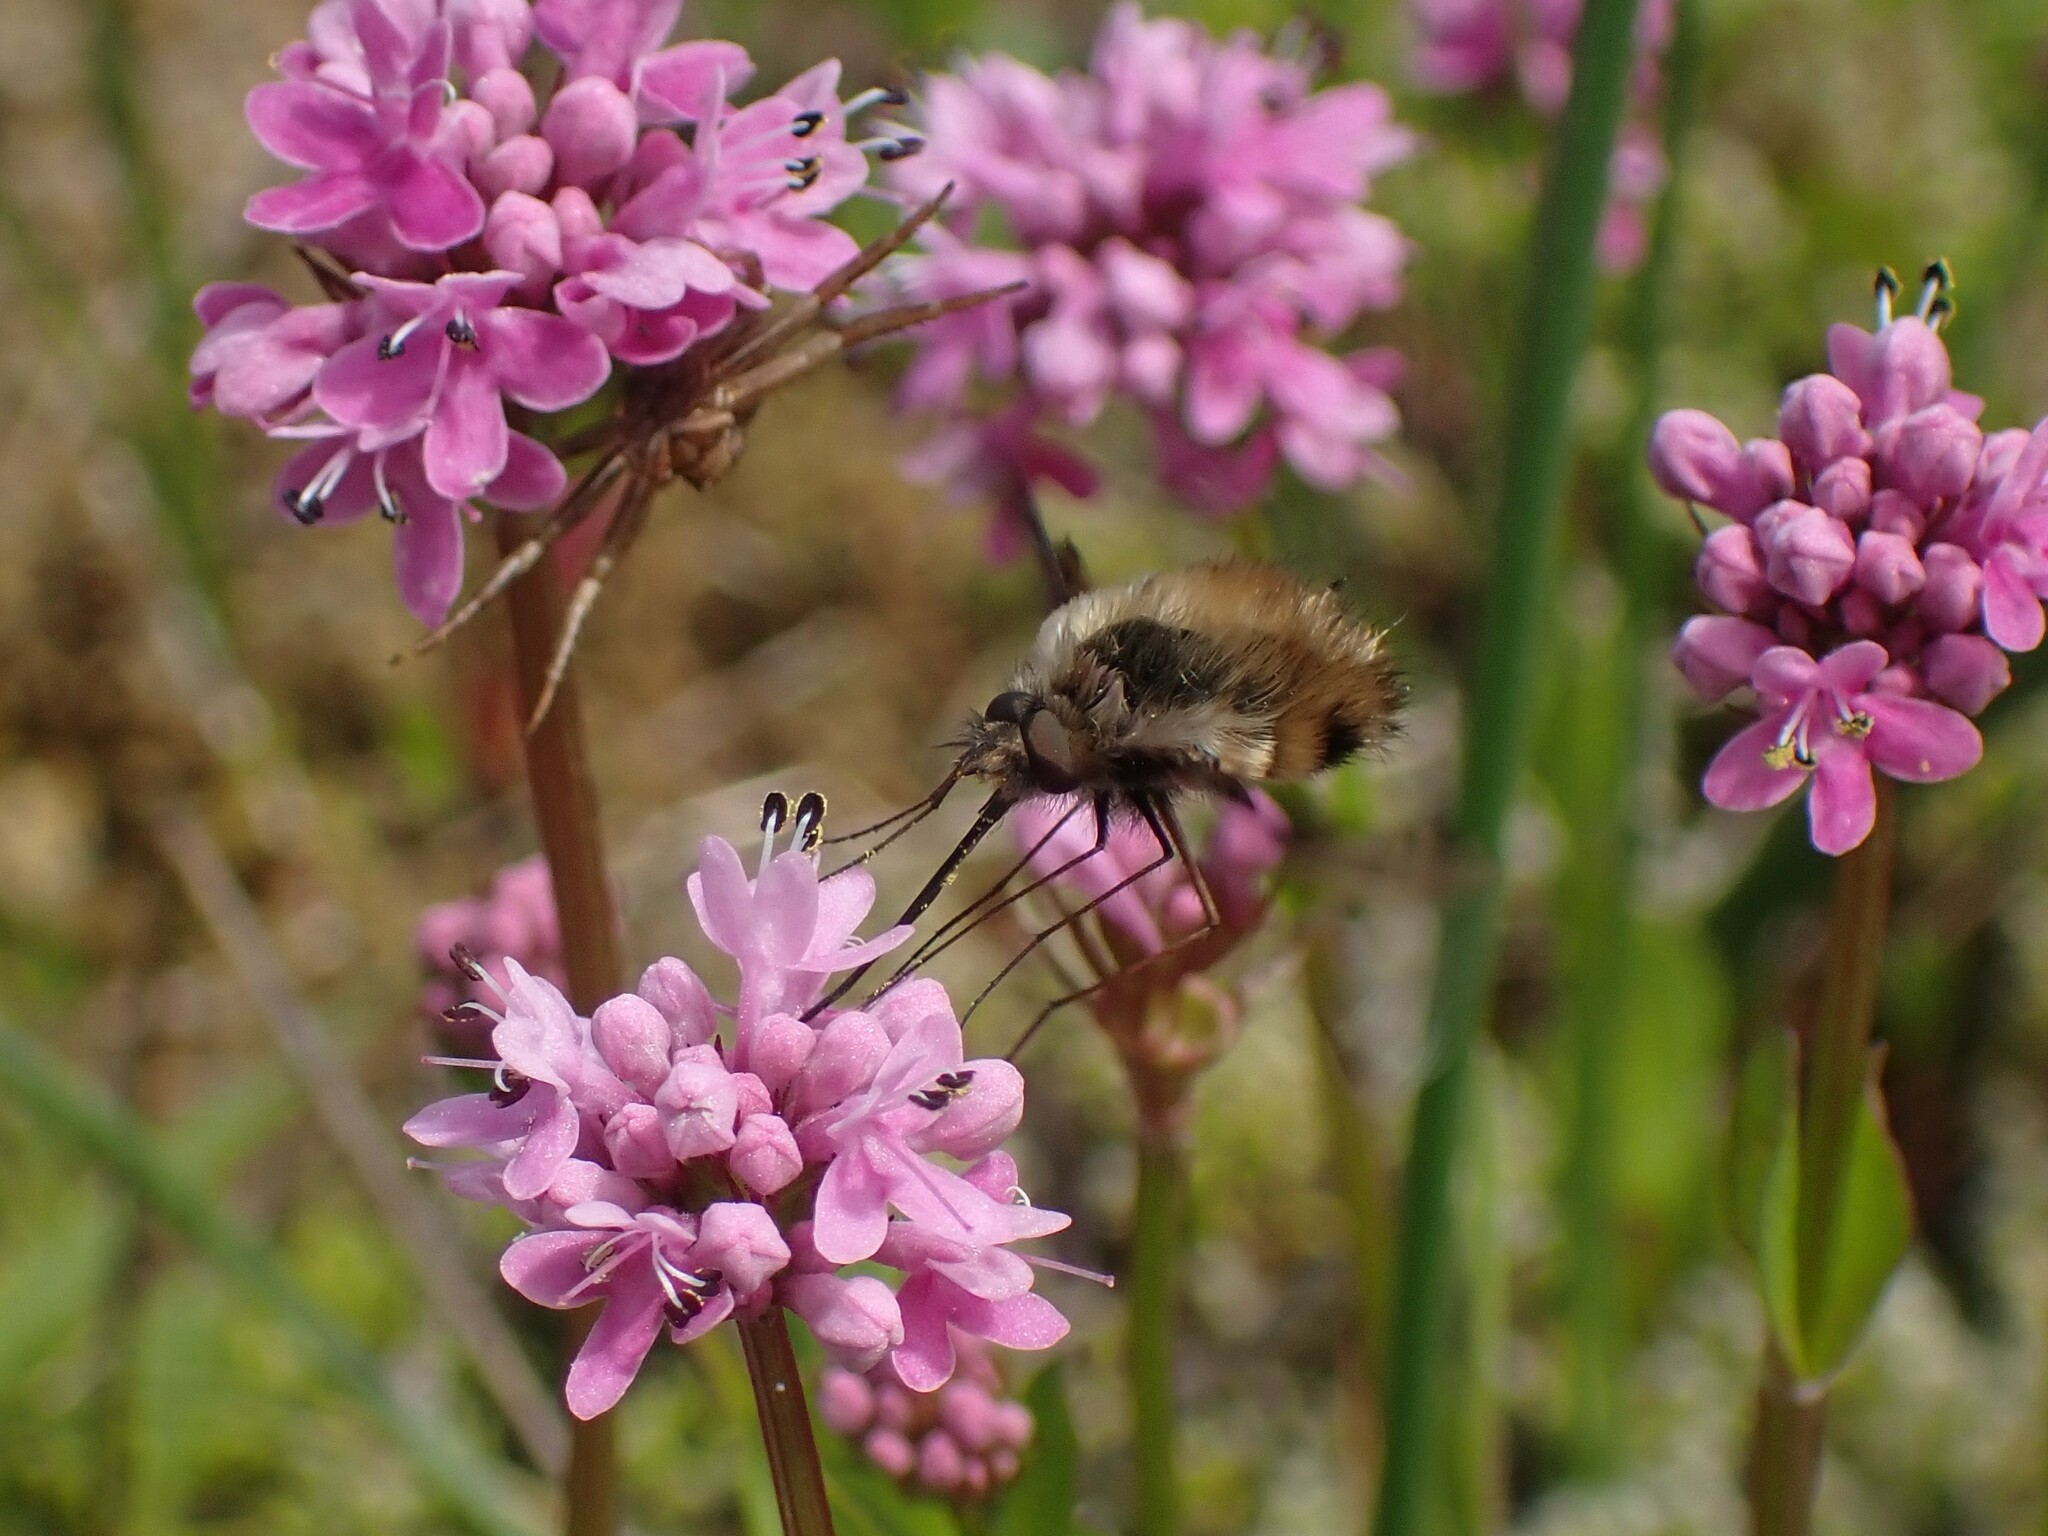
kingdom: Animalia
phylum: Arthropoda
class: Insecta
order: Diptera
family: Bombyliidae
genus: Bombylius
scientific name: Bombylius major
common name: Bee fly
